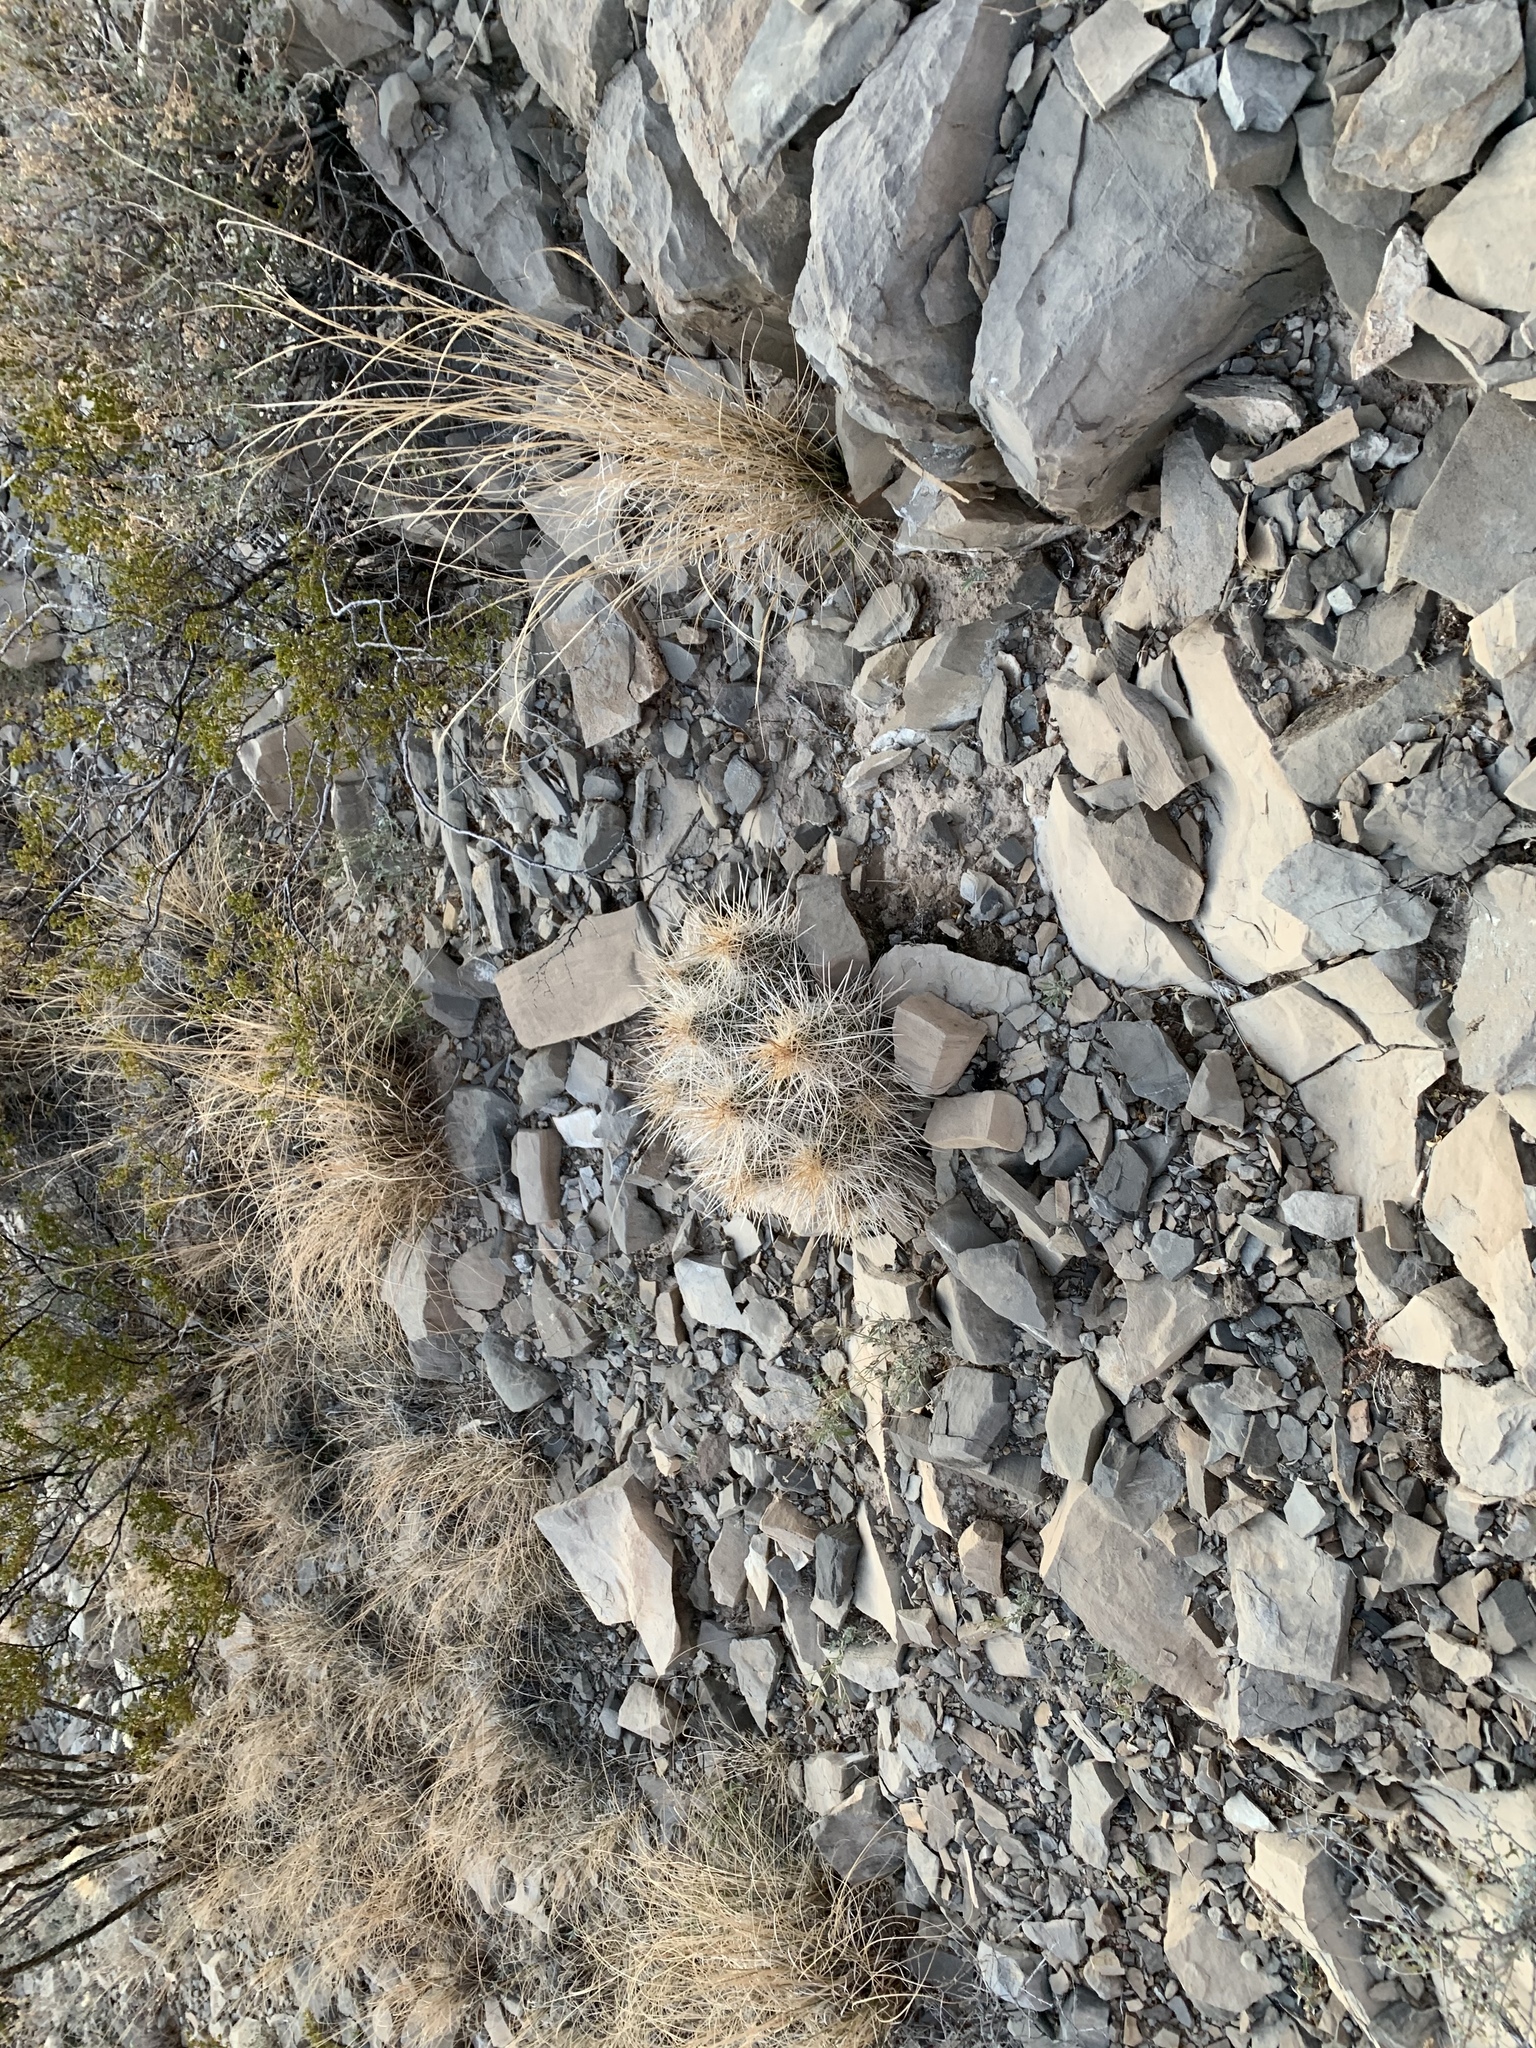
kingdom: Plantae
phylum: Tracheophyta
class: Magnoliopsida
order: Caryophyllales
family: Cactaceae
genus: Echinocereus
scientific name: Echinocereus stramineus
